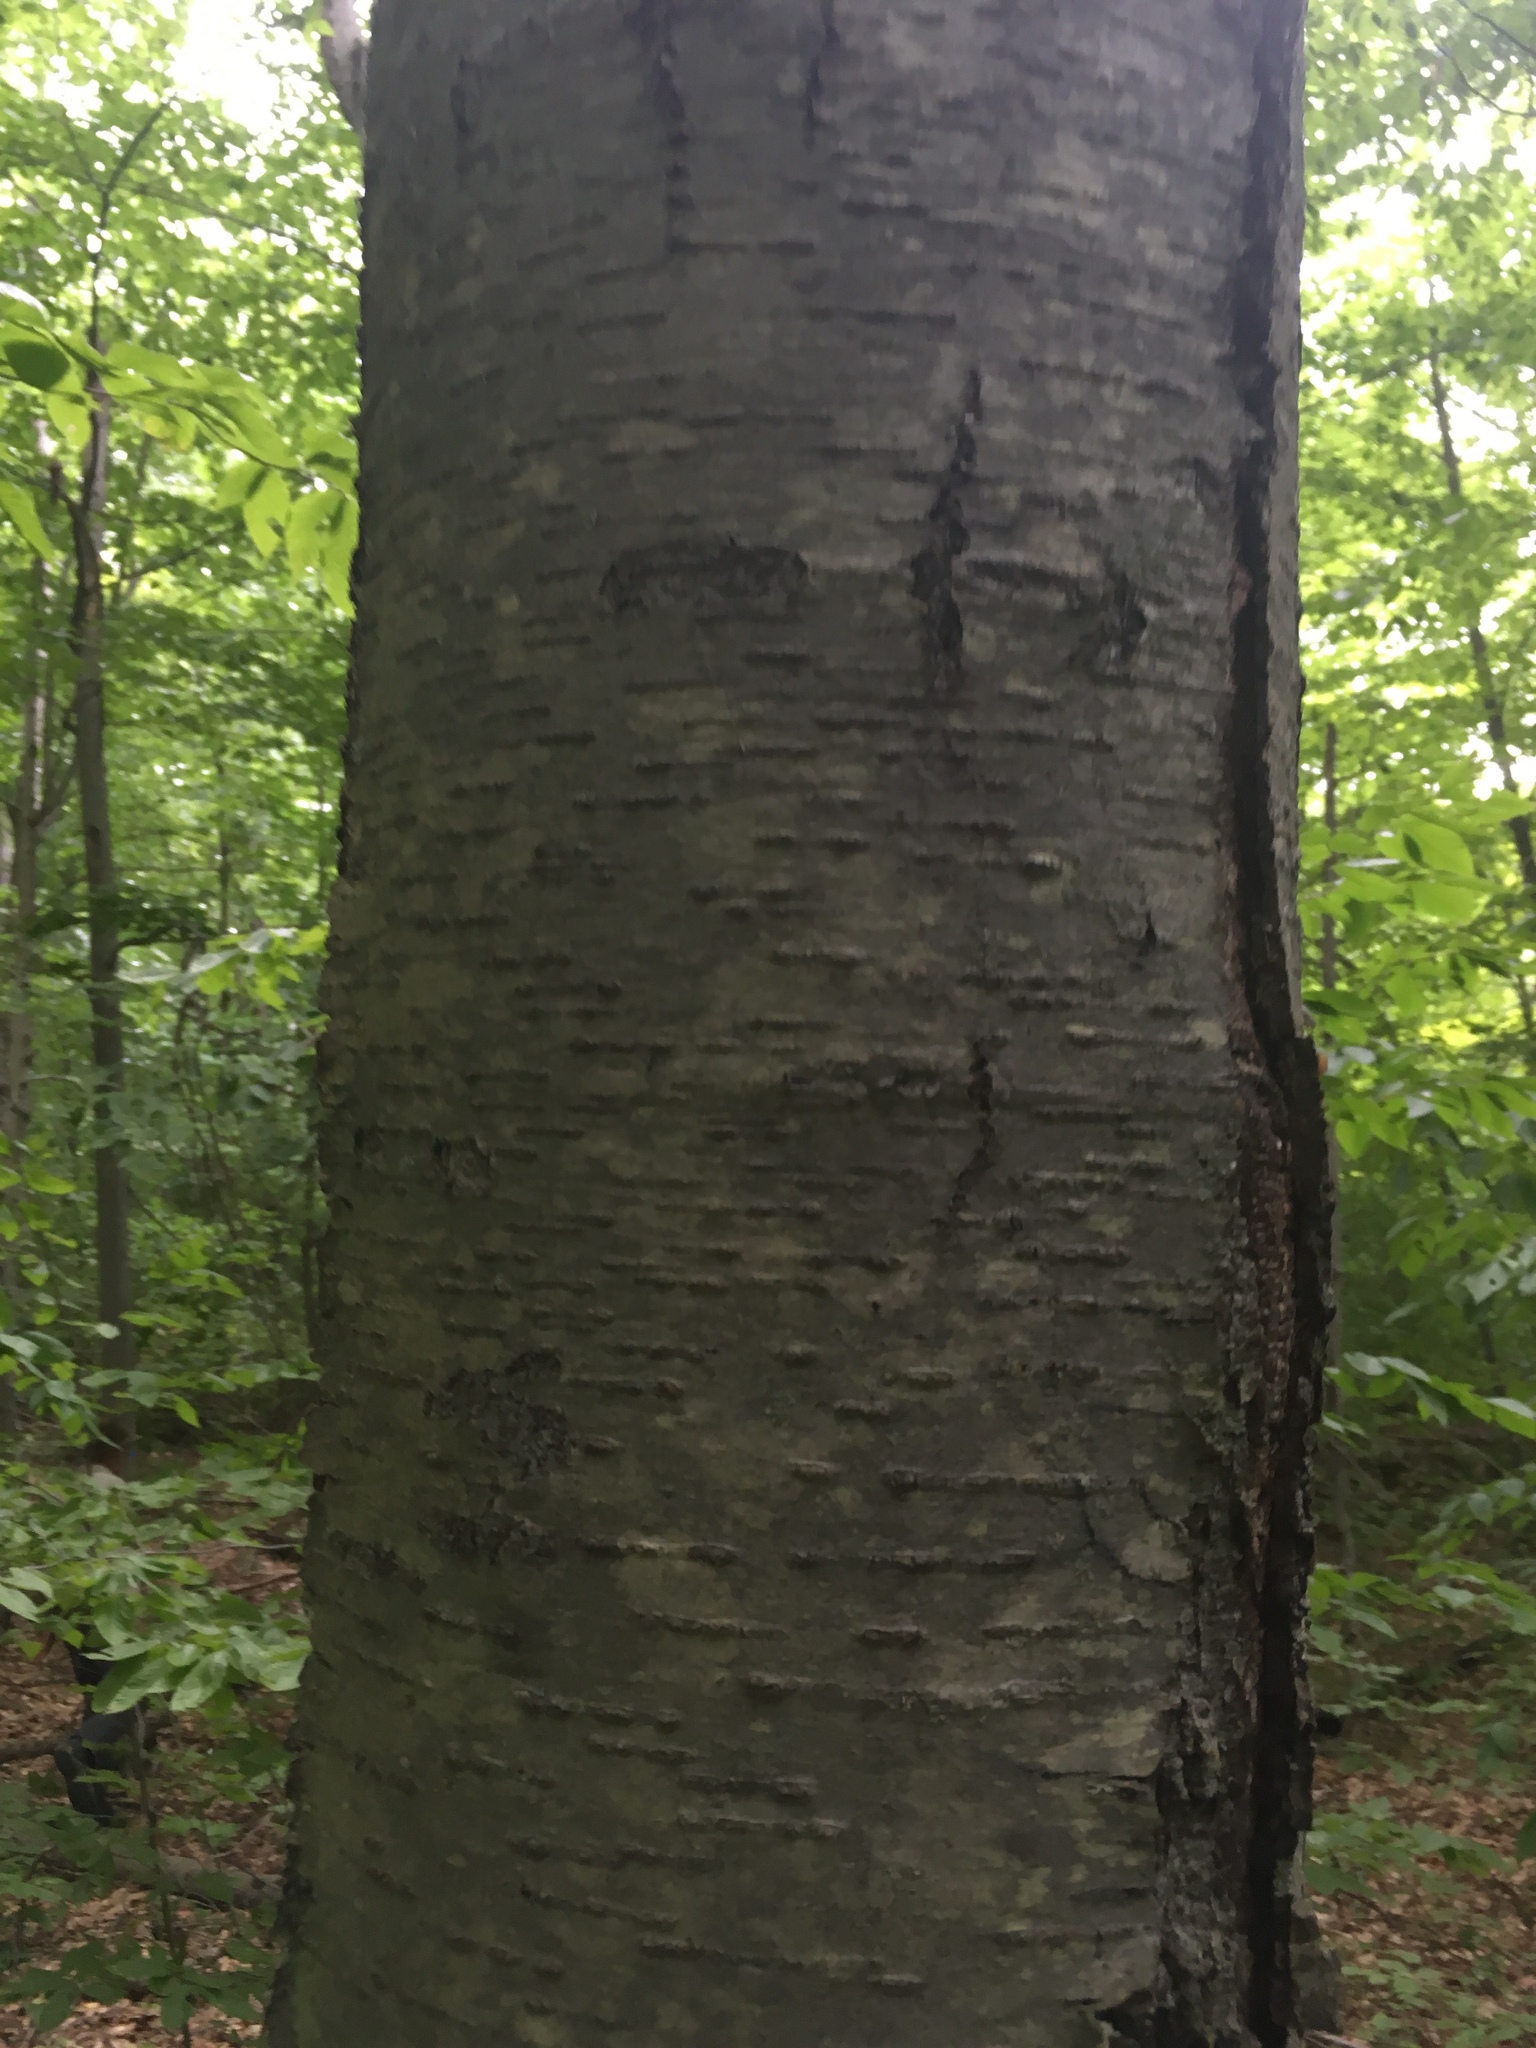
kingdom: Plantae
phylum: Tracheophyta
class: Magnoliopsida
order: Fagales
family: Betulaceae
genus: Betula
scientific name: Betula lenta
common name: Black birch
